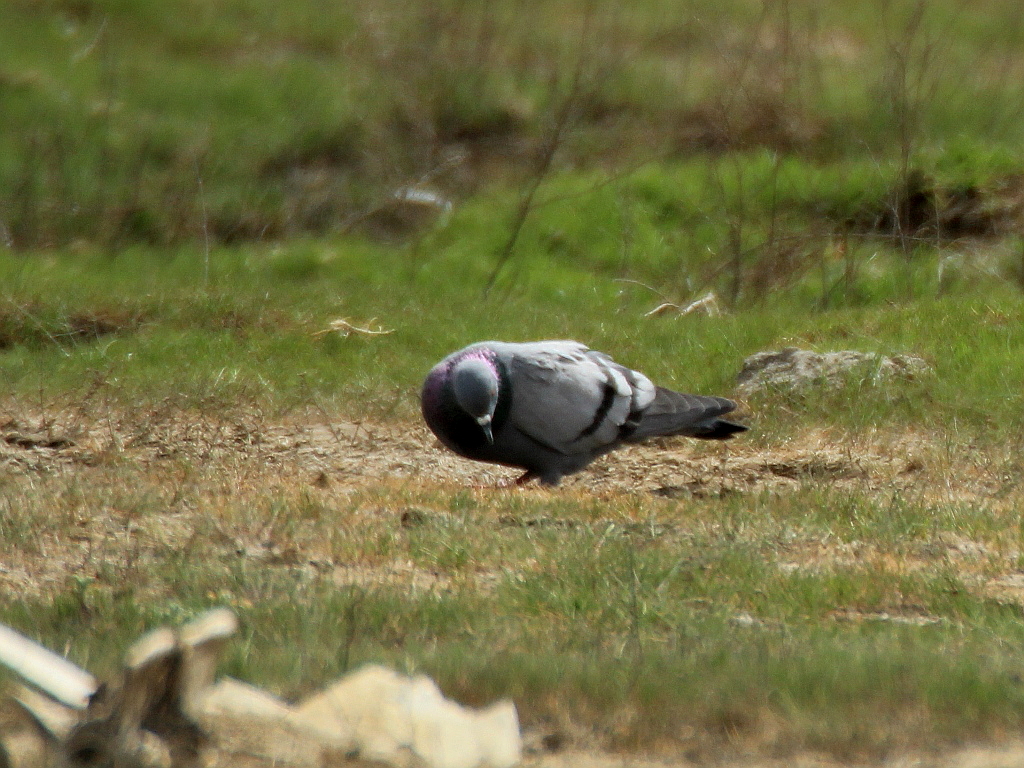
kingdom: Animalia
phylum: Chordata
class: Aves
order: Columbiformes
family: Columbidae
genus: Columba
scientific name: Columba livia
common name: Rock pigeon
